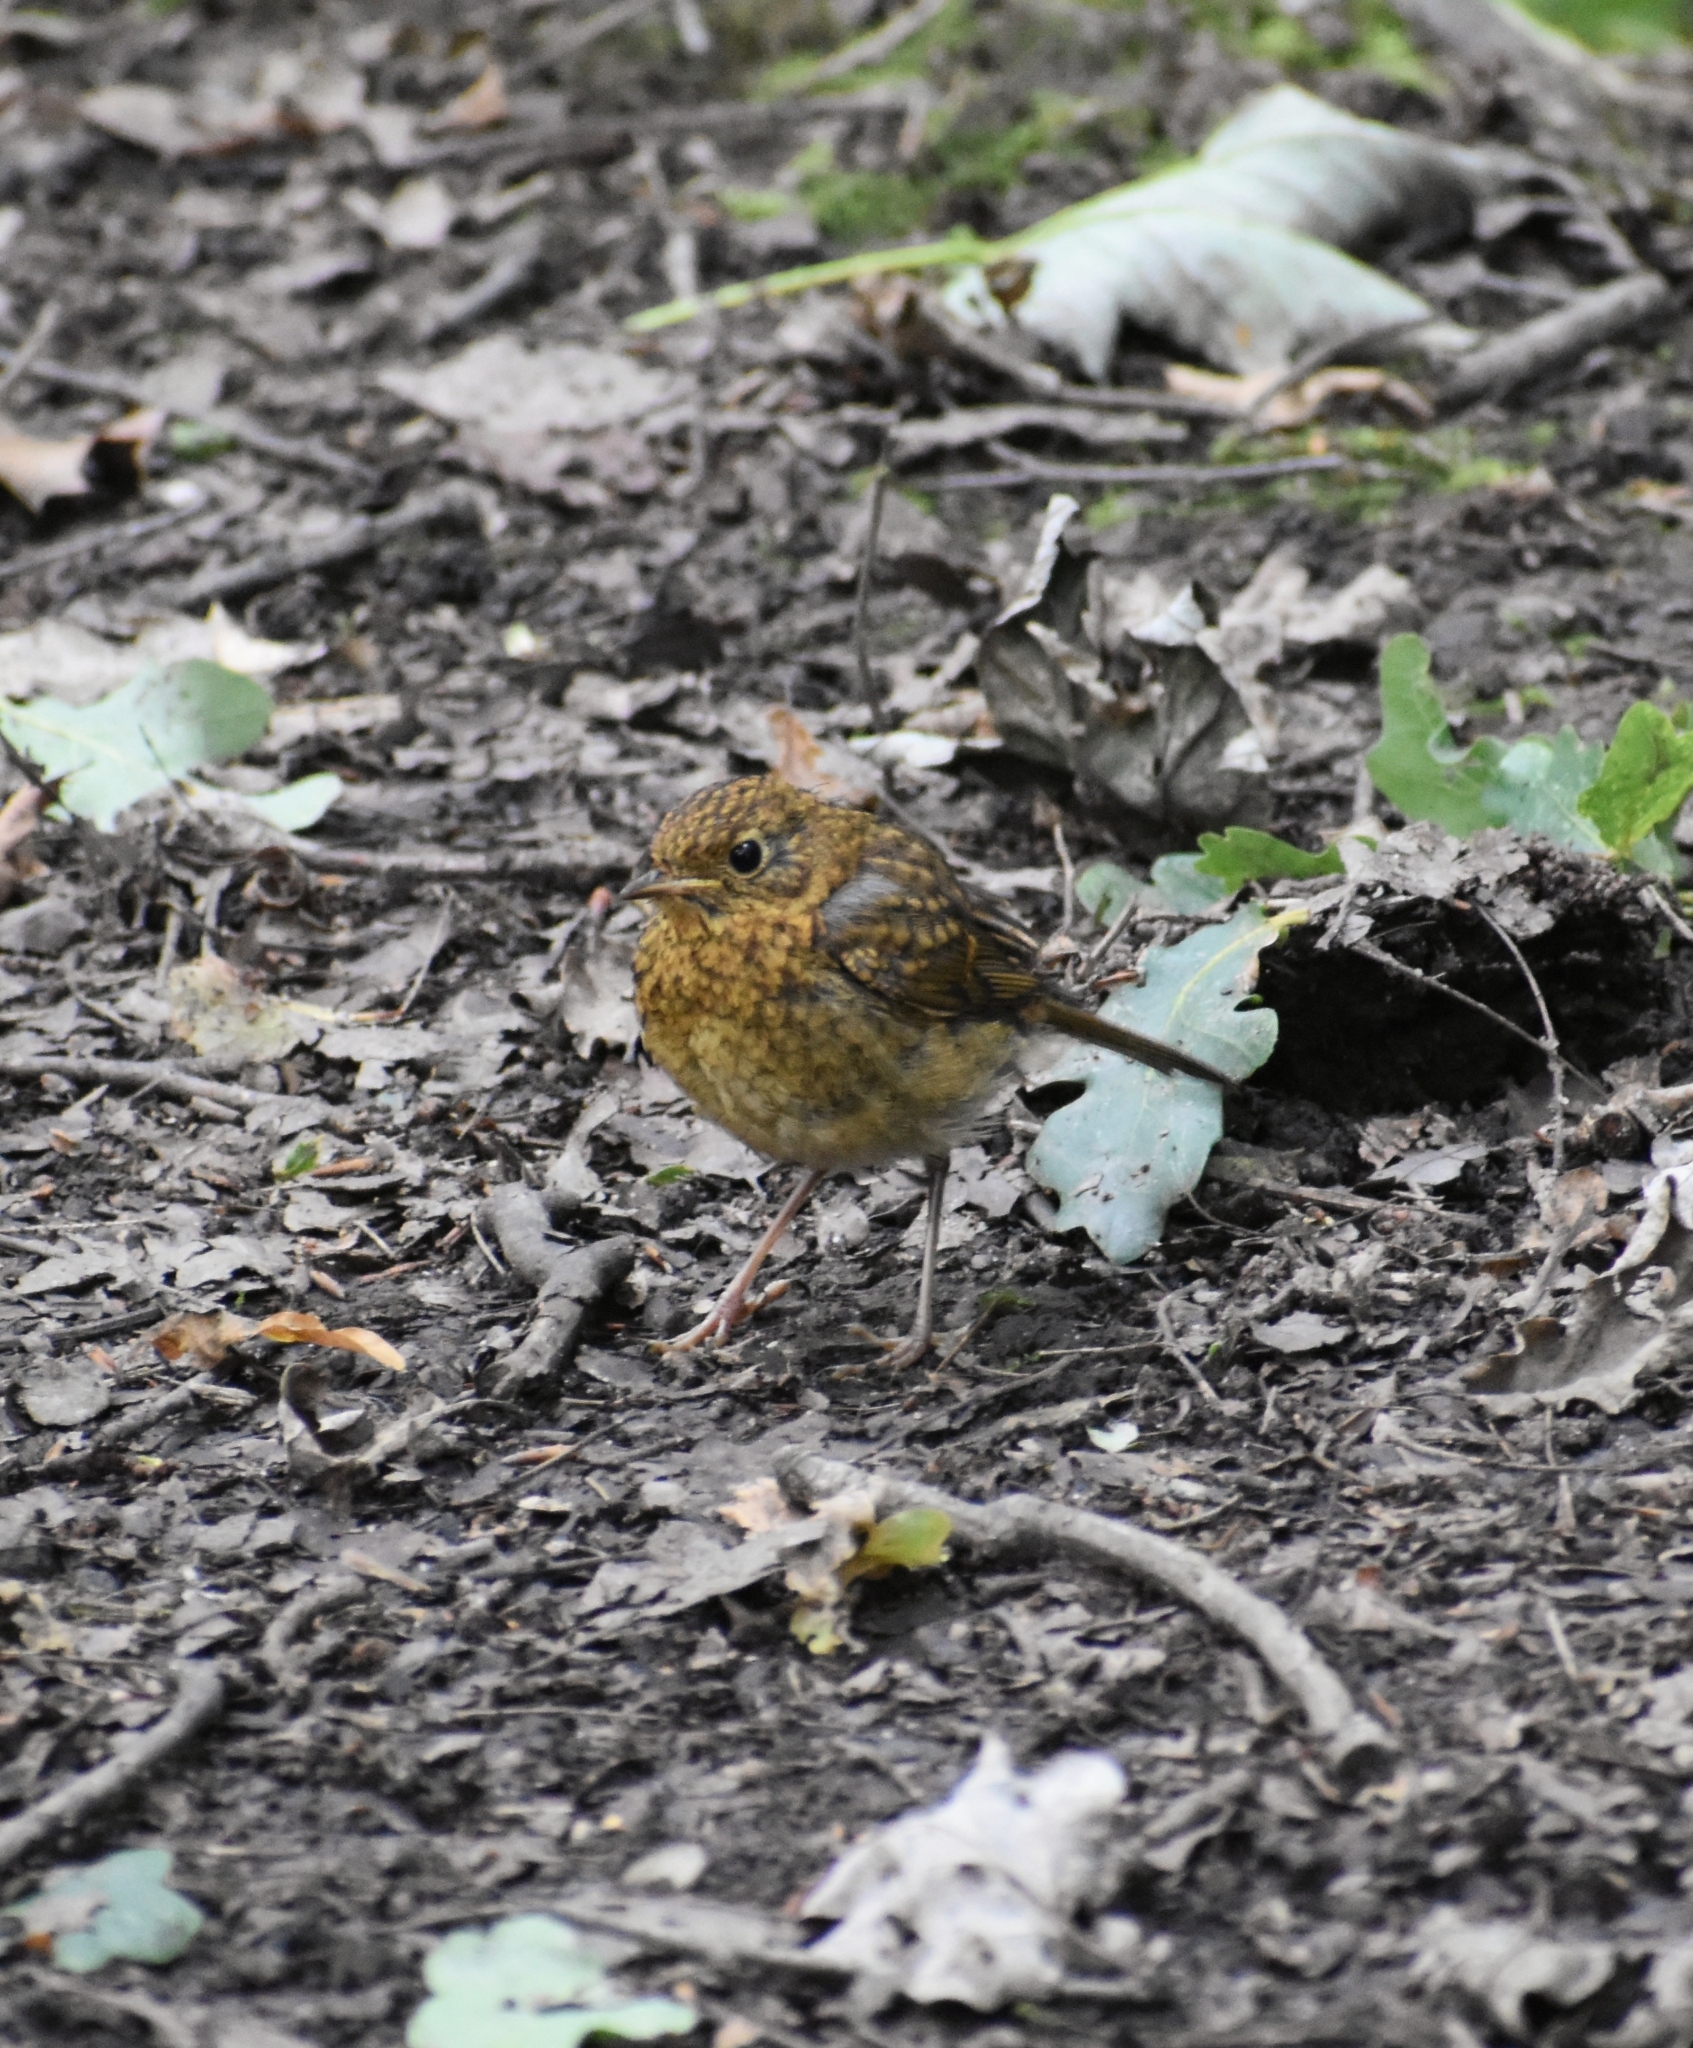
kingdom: Animalia
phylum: Chordata
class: Aves
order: Passeriformes
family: Muscicapidae
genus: Erithacus
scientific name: Erithacus rubecula
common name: European robin
